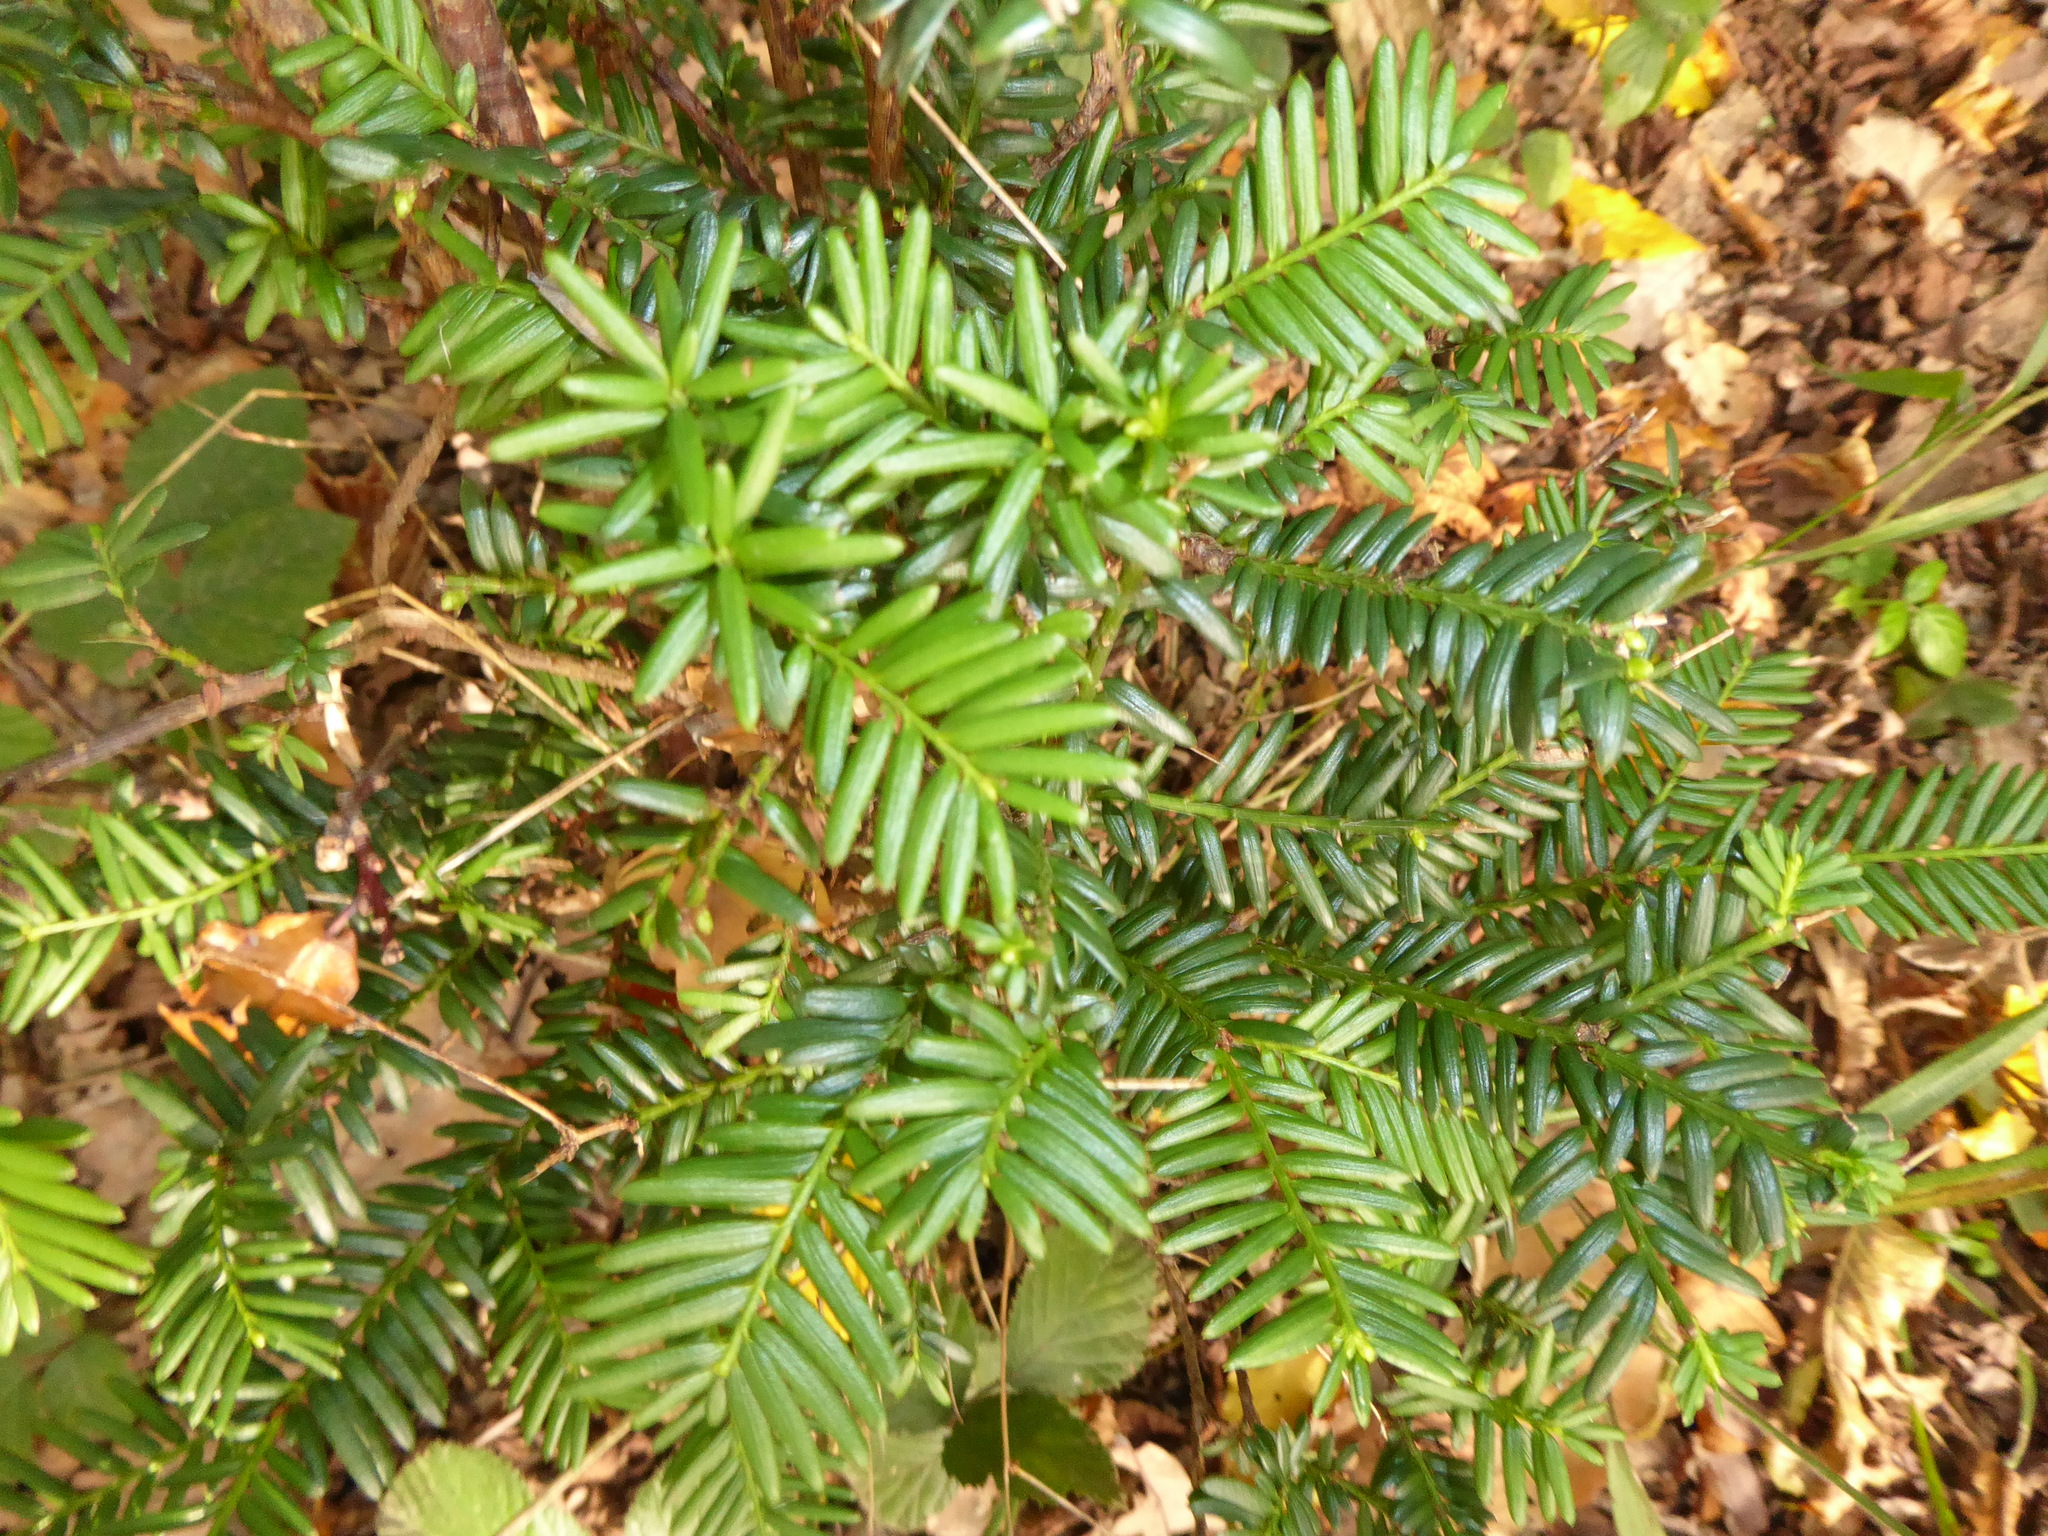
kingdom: Plantae
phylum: Tracheophyta
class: Pinopsida
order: Pinales
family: Taxaceae
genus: Taxus
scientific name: Taxus baccata
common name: Yew
